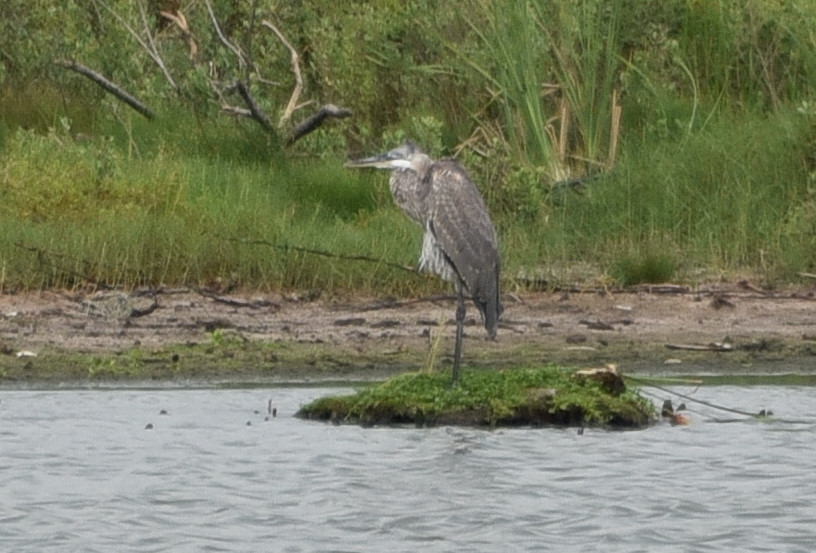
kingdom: Animalia
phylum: Chordata
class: Aves
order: Pelecaniformes
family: Ardeidae
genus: Ardea
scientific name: Ardea herodias
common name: Great blue heron
